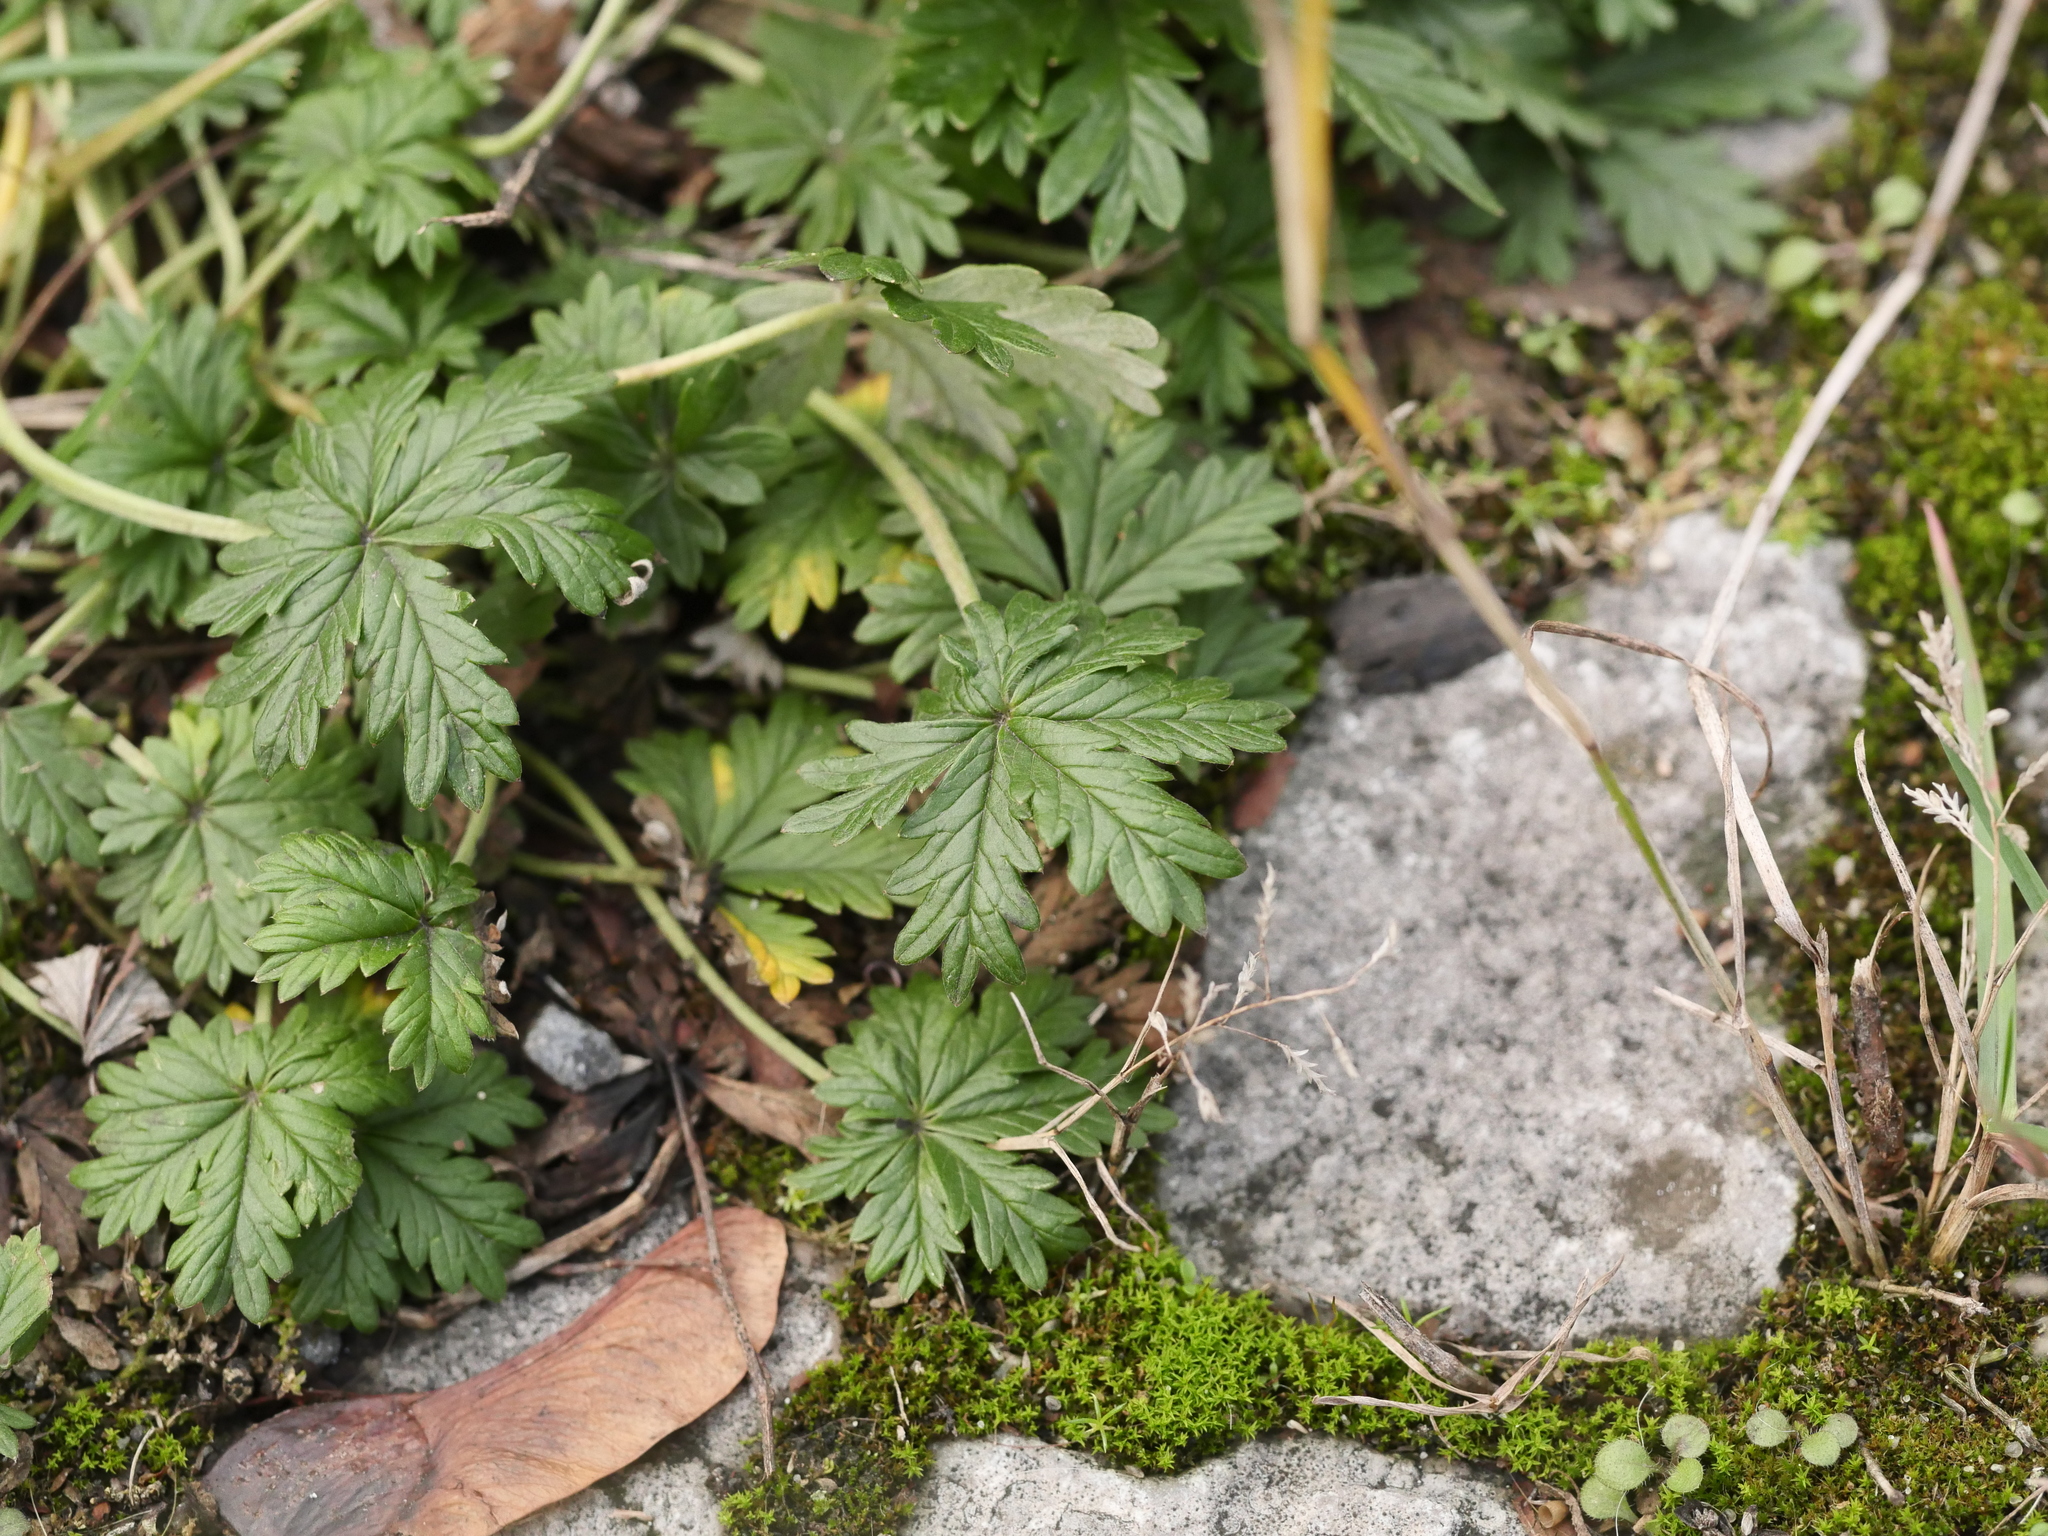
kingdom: Plantae
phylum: Tracheophyta
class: Magnoliopsida
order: Rosales
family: Rosaceae
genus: Potentilla
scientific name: Potentilla argentea
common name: Hoary cinquefoil
